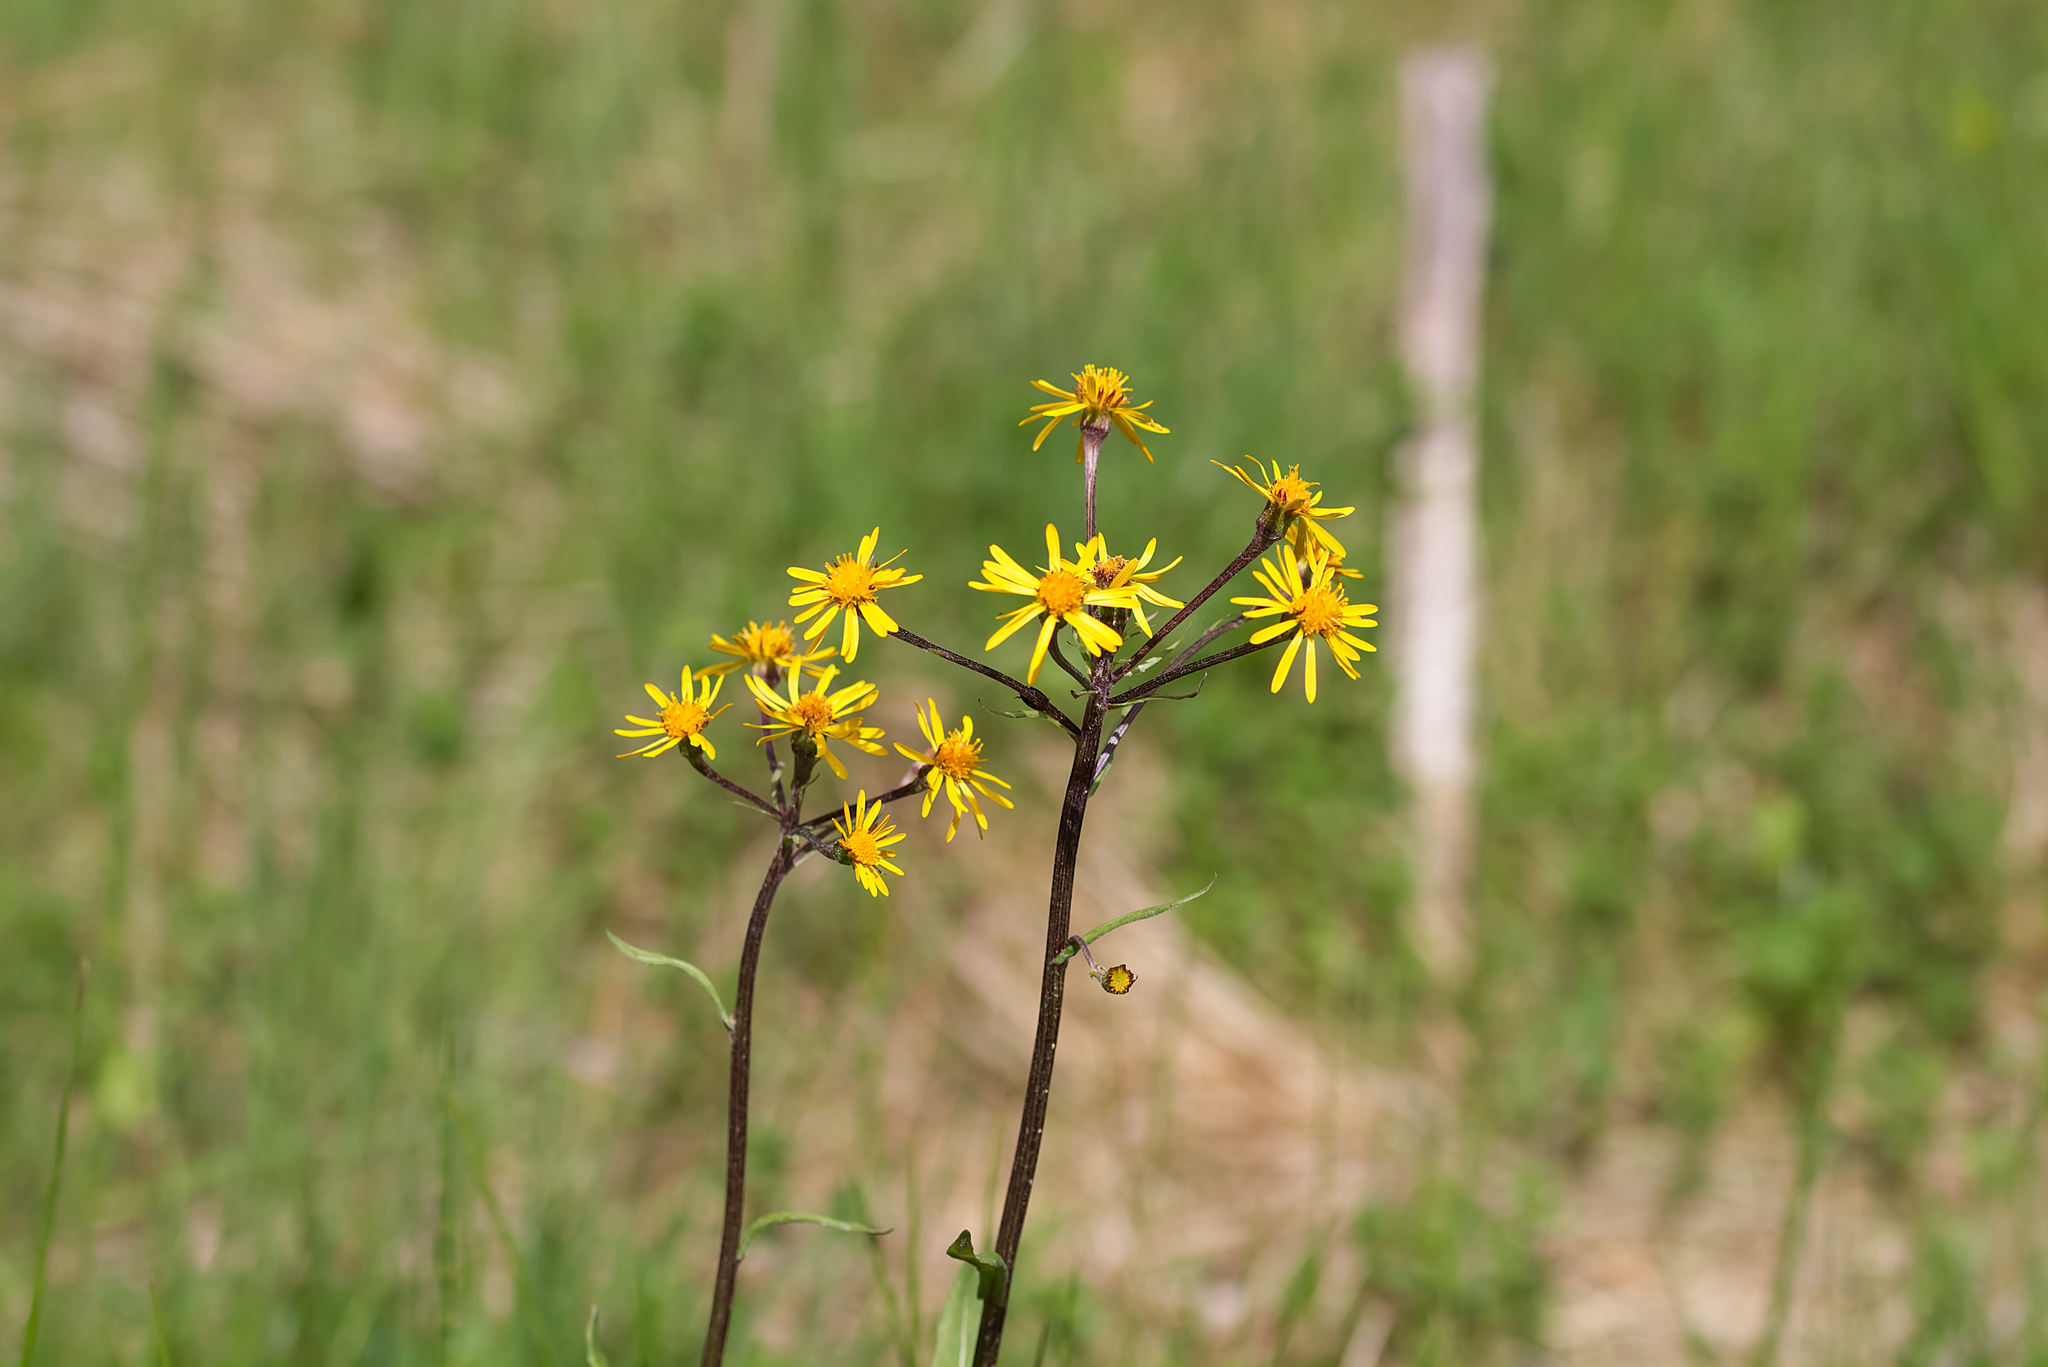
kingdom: Plantae
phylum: Tracheophyta
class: Magnoliopsida
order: Asterales
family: Asteraceae
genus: Tephroseris
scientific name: Tephroseris crispa
